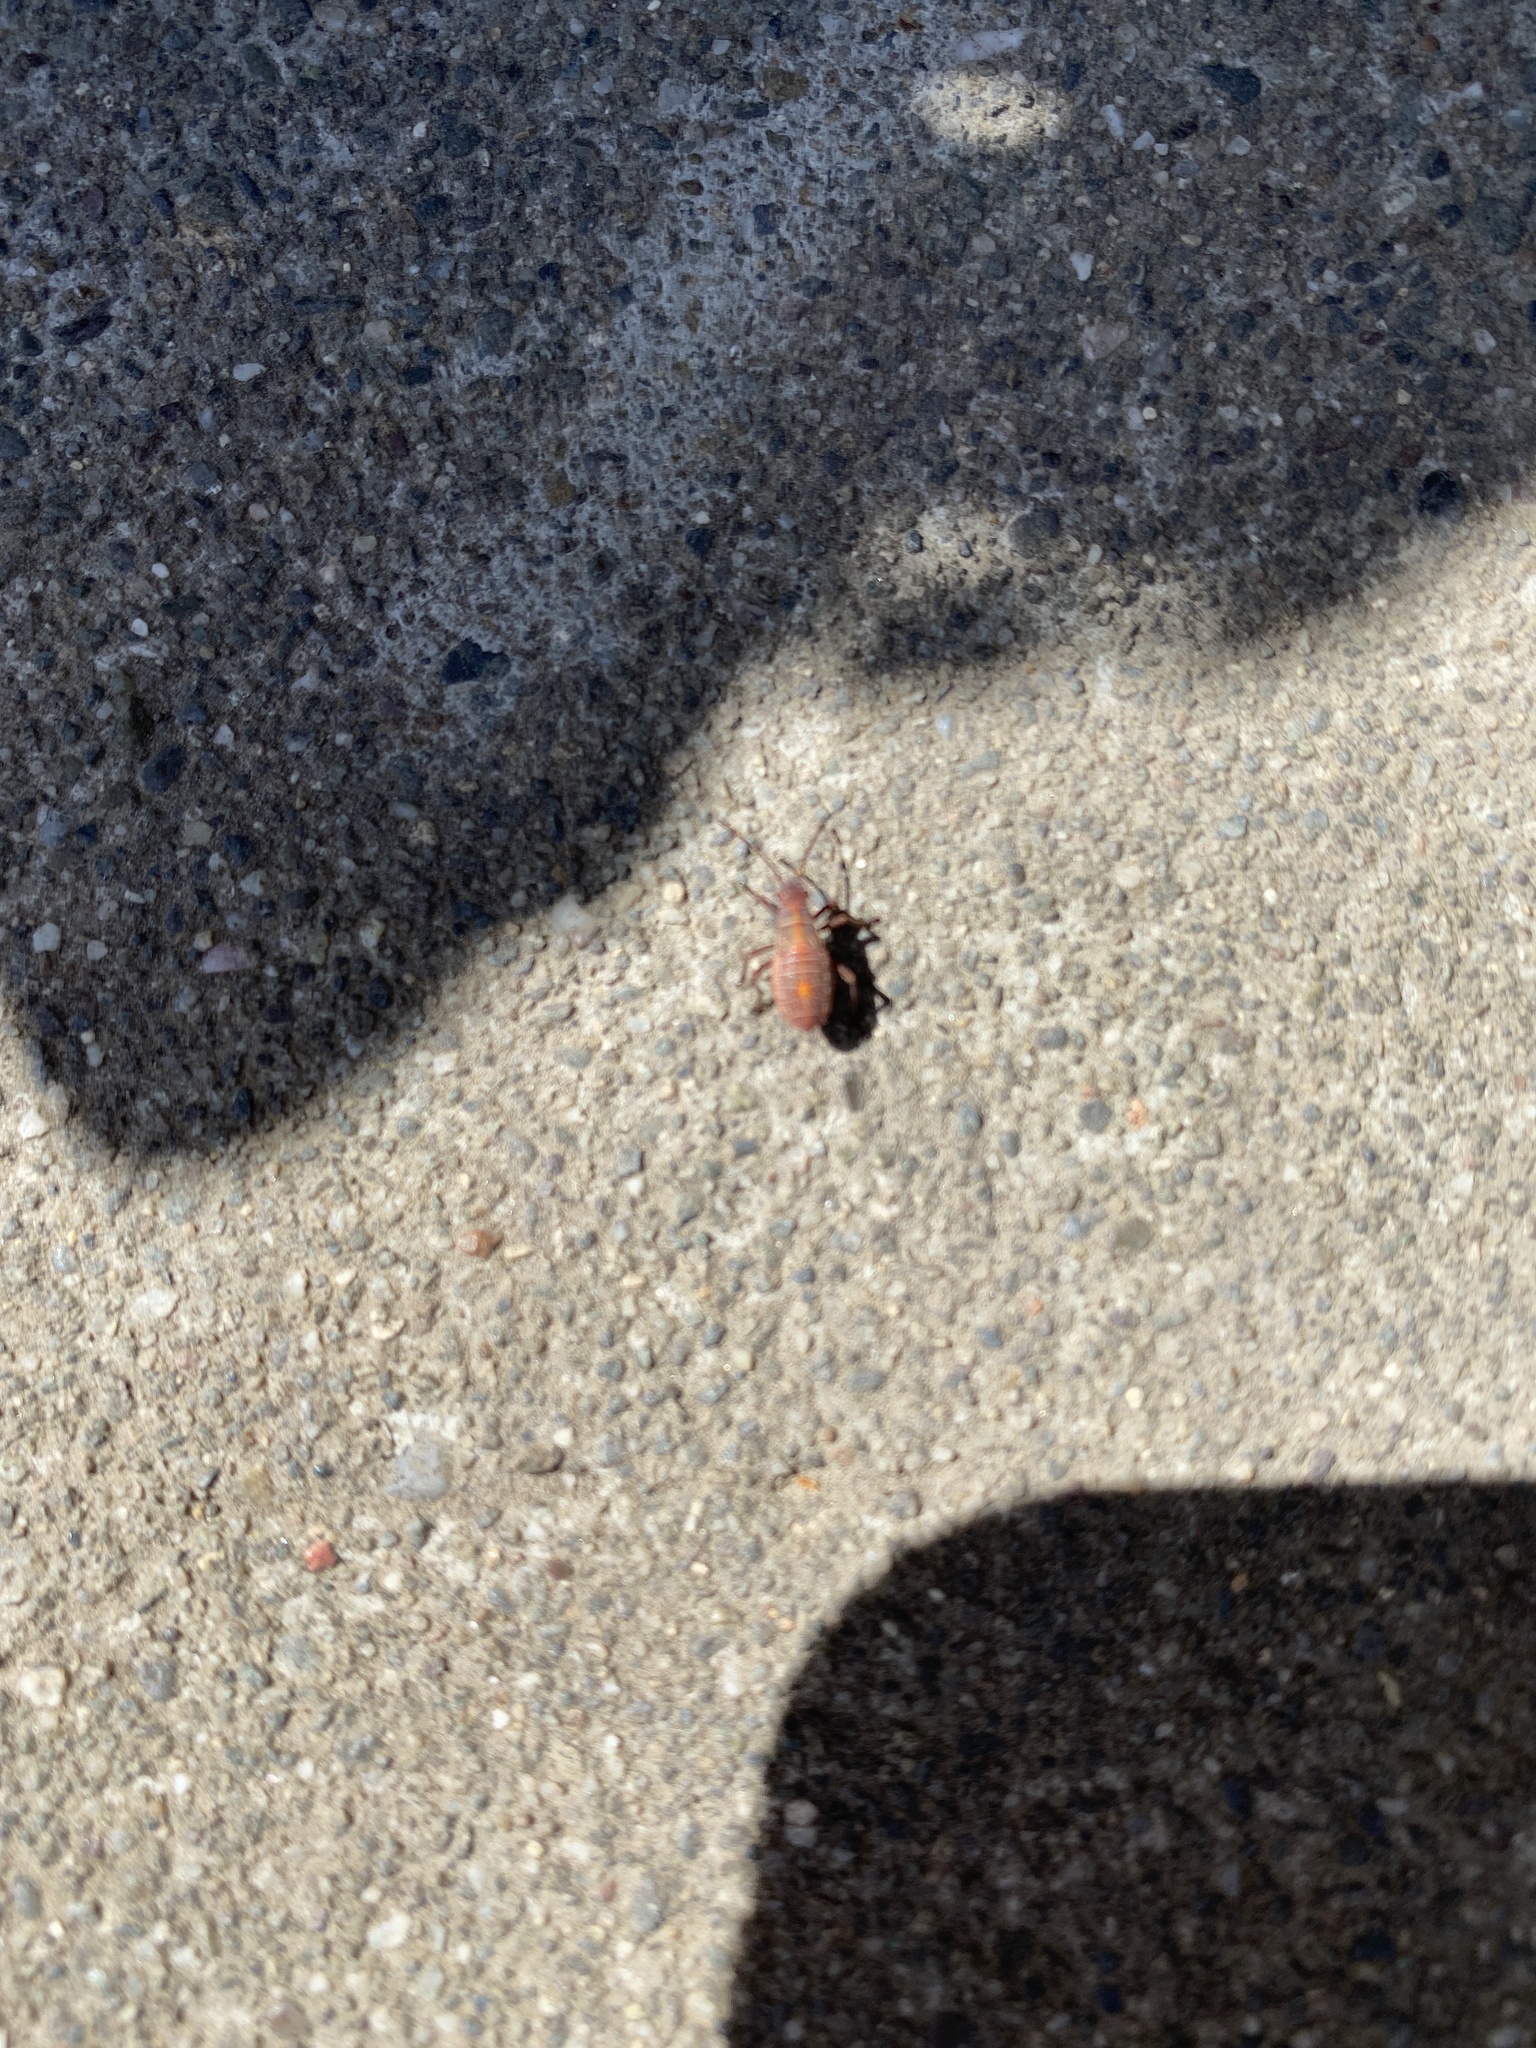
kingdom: Animalia
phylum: Arthropoda
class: Insecta
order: Hemiptera
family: Rhopalidae
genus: Boisea
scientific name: Boisea rubrolineata
